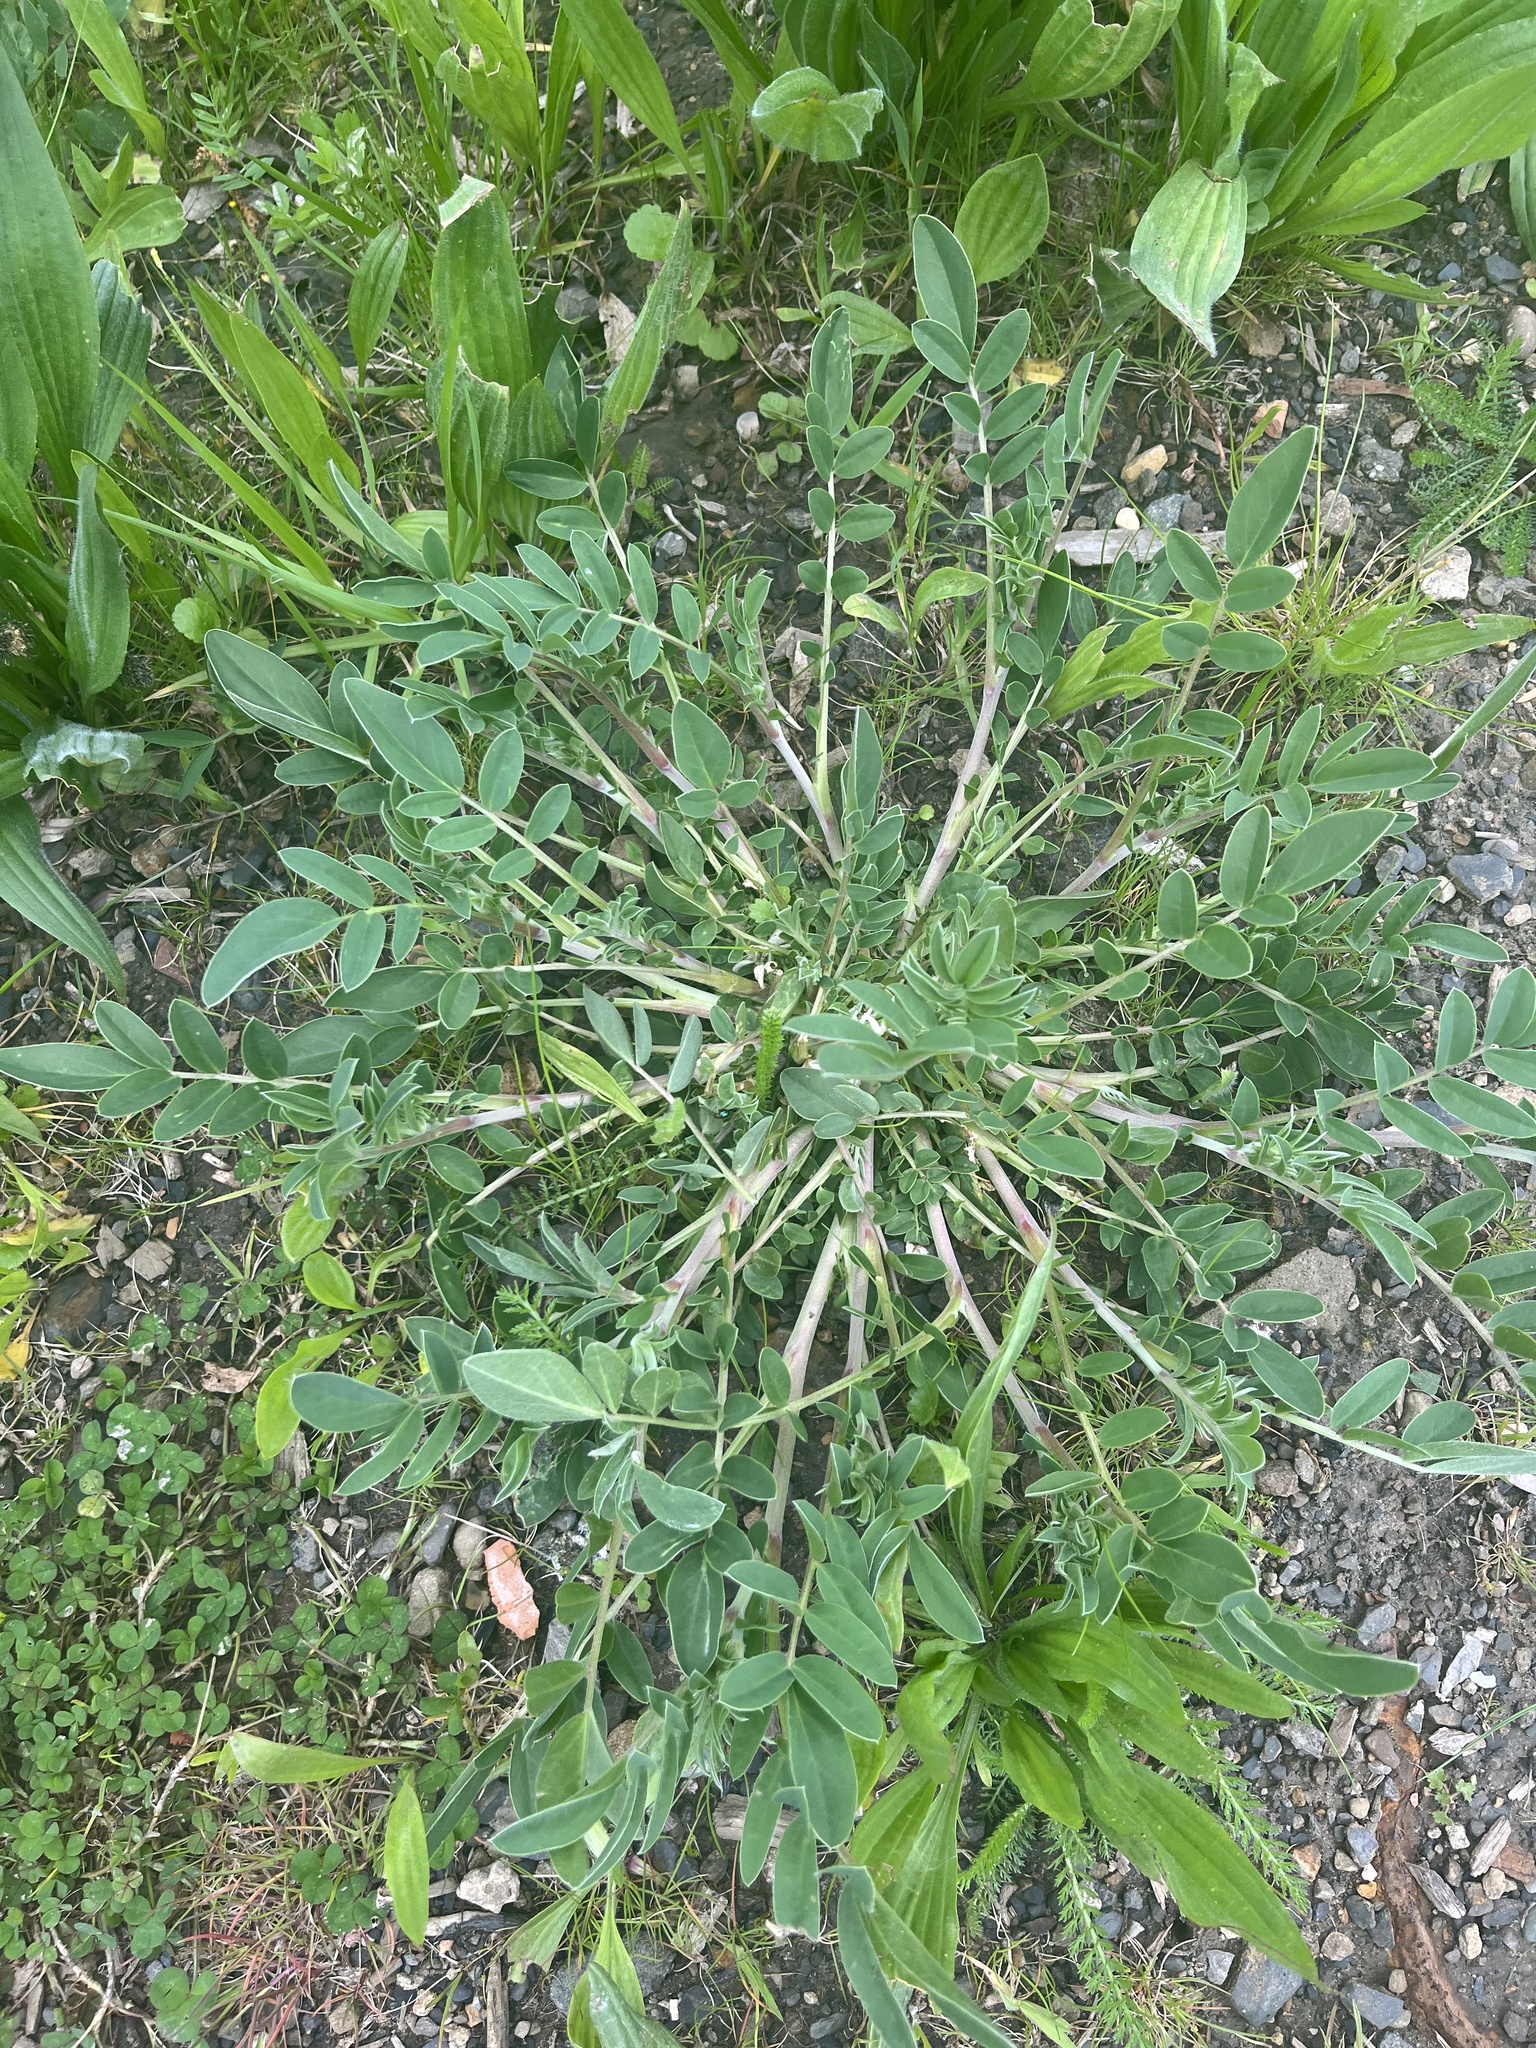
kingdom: Plantae
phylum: Tracheophyta
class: Magnoliopsida
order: Fabales
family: Fabaceae
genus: Anthyllis
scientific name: Anthyllis vulneraria
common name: Kidney vetch
